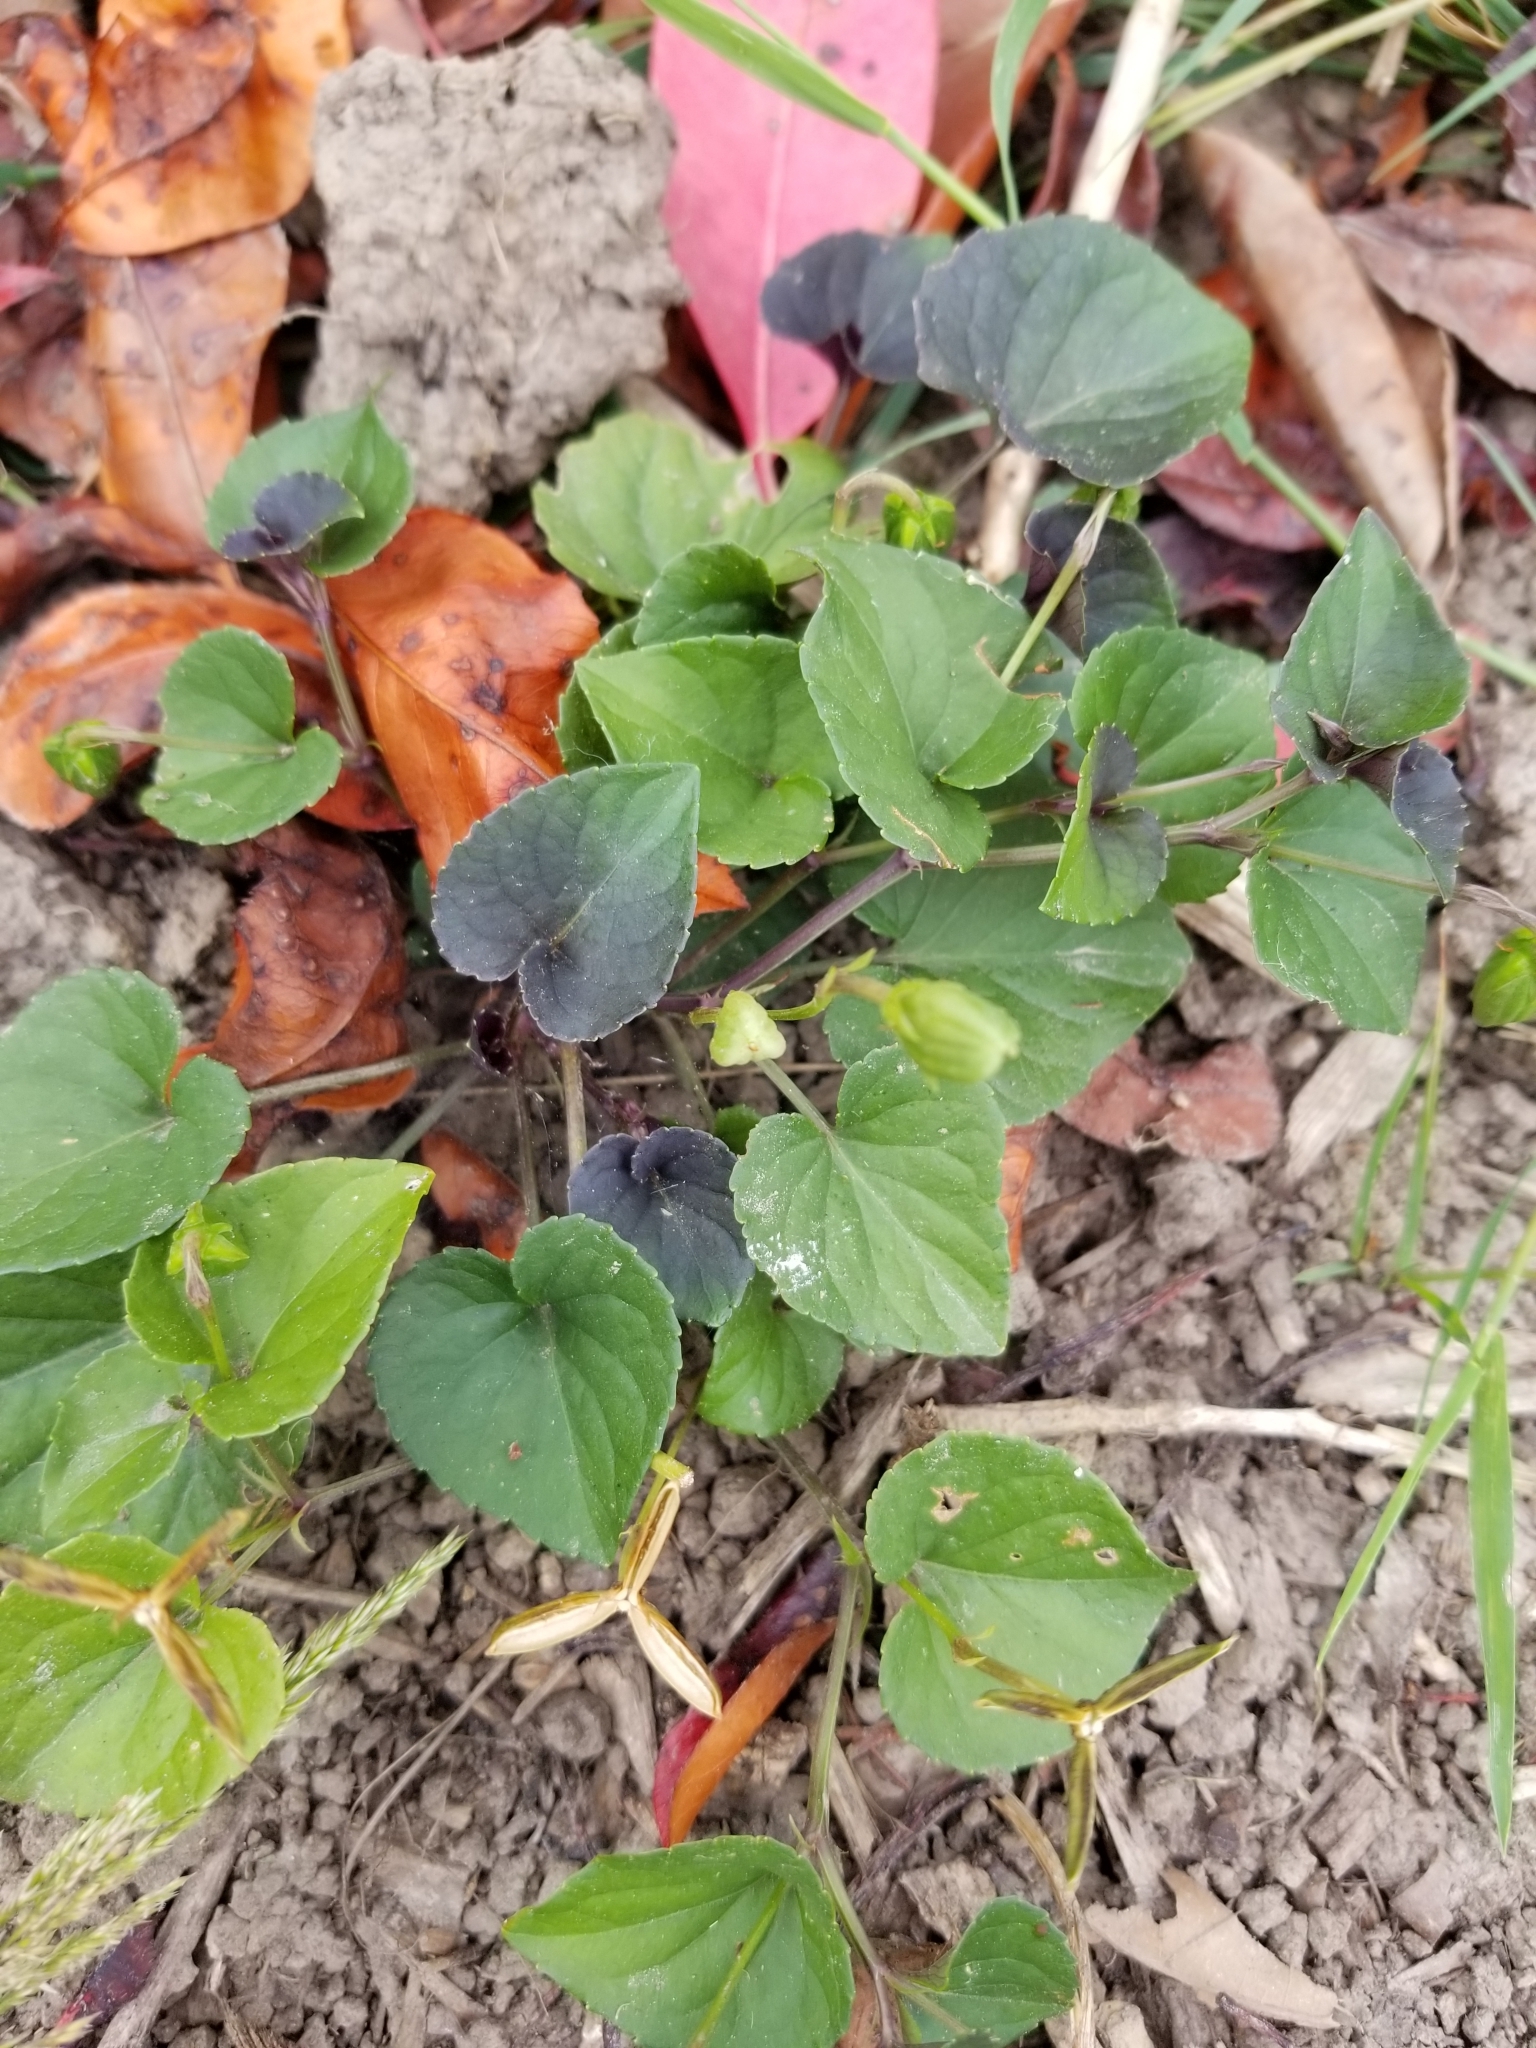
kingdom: Plantae
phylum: Tracheophyta
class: Magnoliopsida
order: Malpighiales
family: Violaceae
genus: Viola
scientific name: Viola riviniana
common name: Common dog-violet
